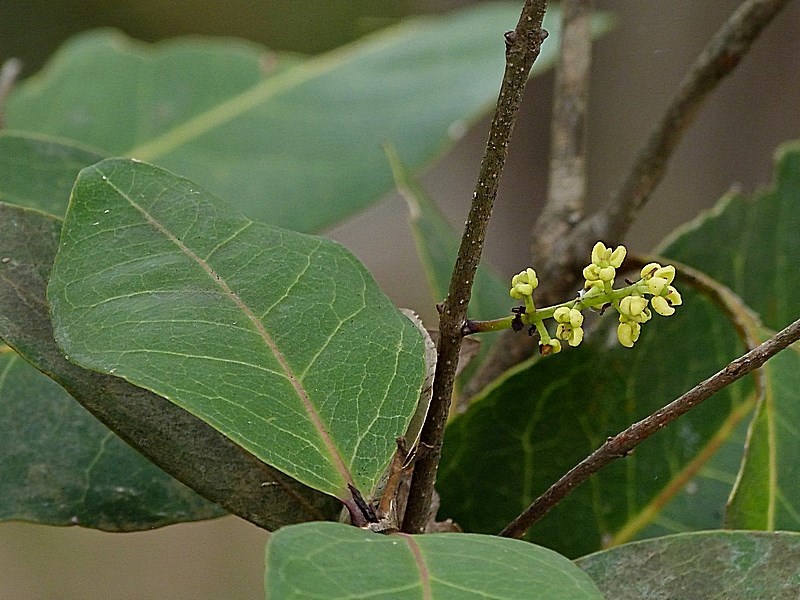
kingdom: Plantae
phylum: Tracheophyta
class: Magnoliopsida
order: Lamiales
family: Oleaceae
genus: Notelaea
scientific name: Notelaea venosa
